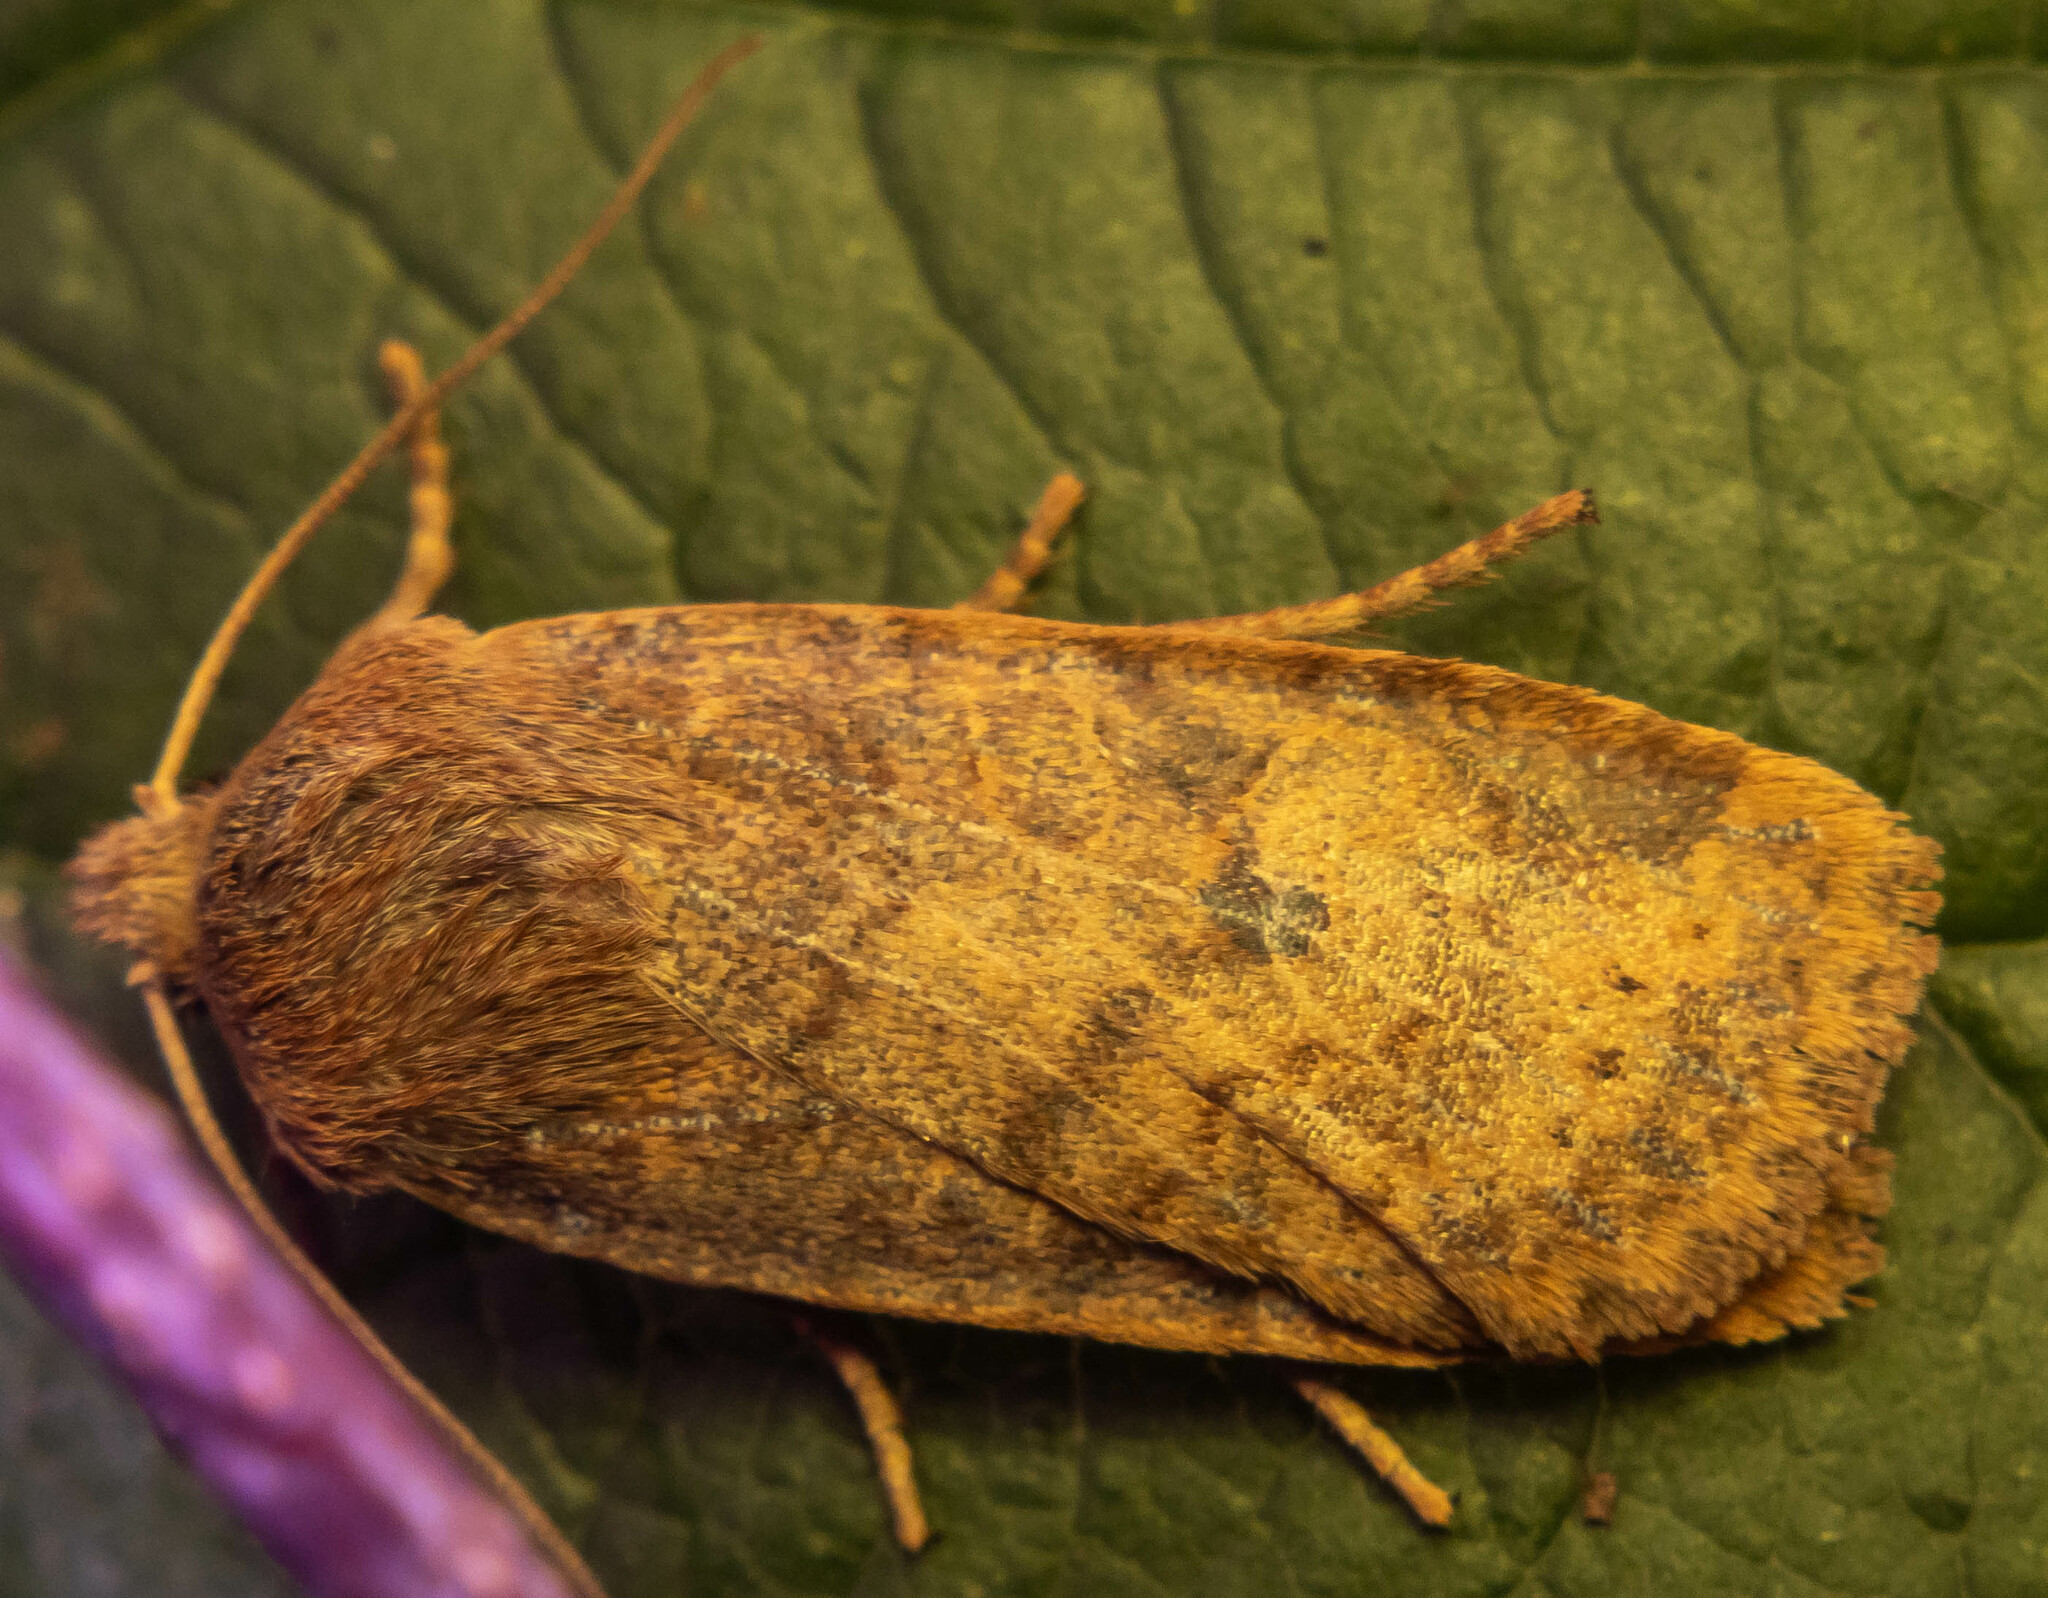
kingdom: Animalia
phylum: Arthropoda
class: Insecta
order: Lepidoptera
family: Noctuidae
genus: Conistra
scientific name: Conistra vaccinii
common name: Chestnut
